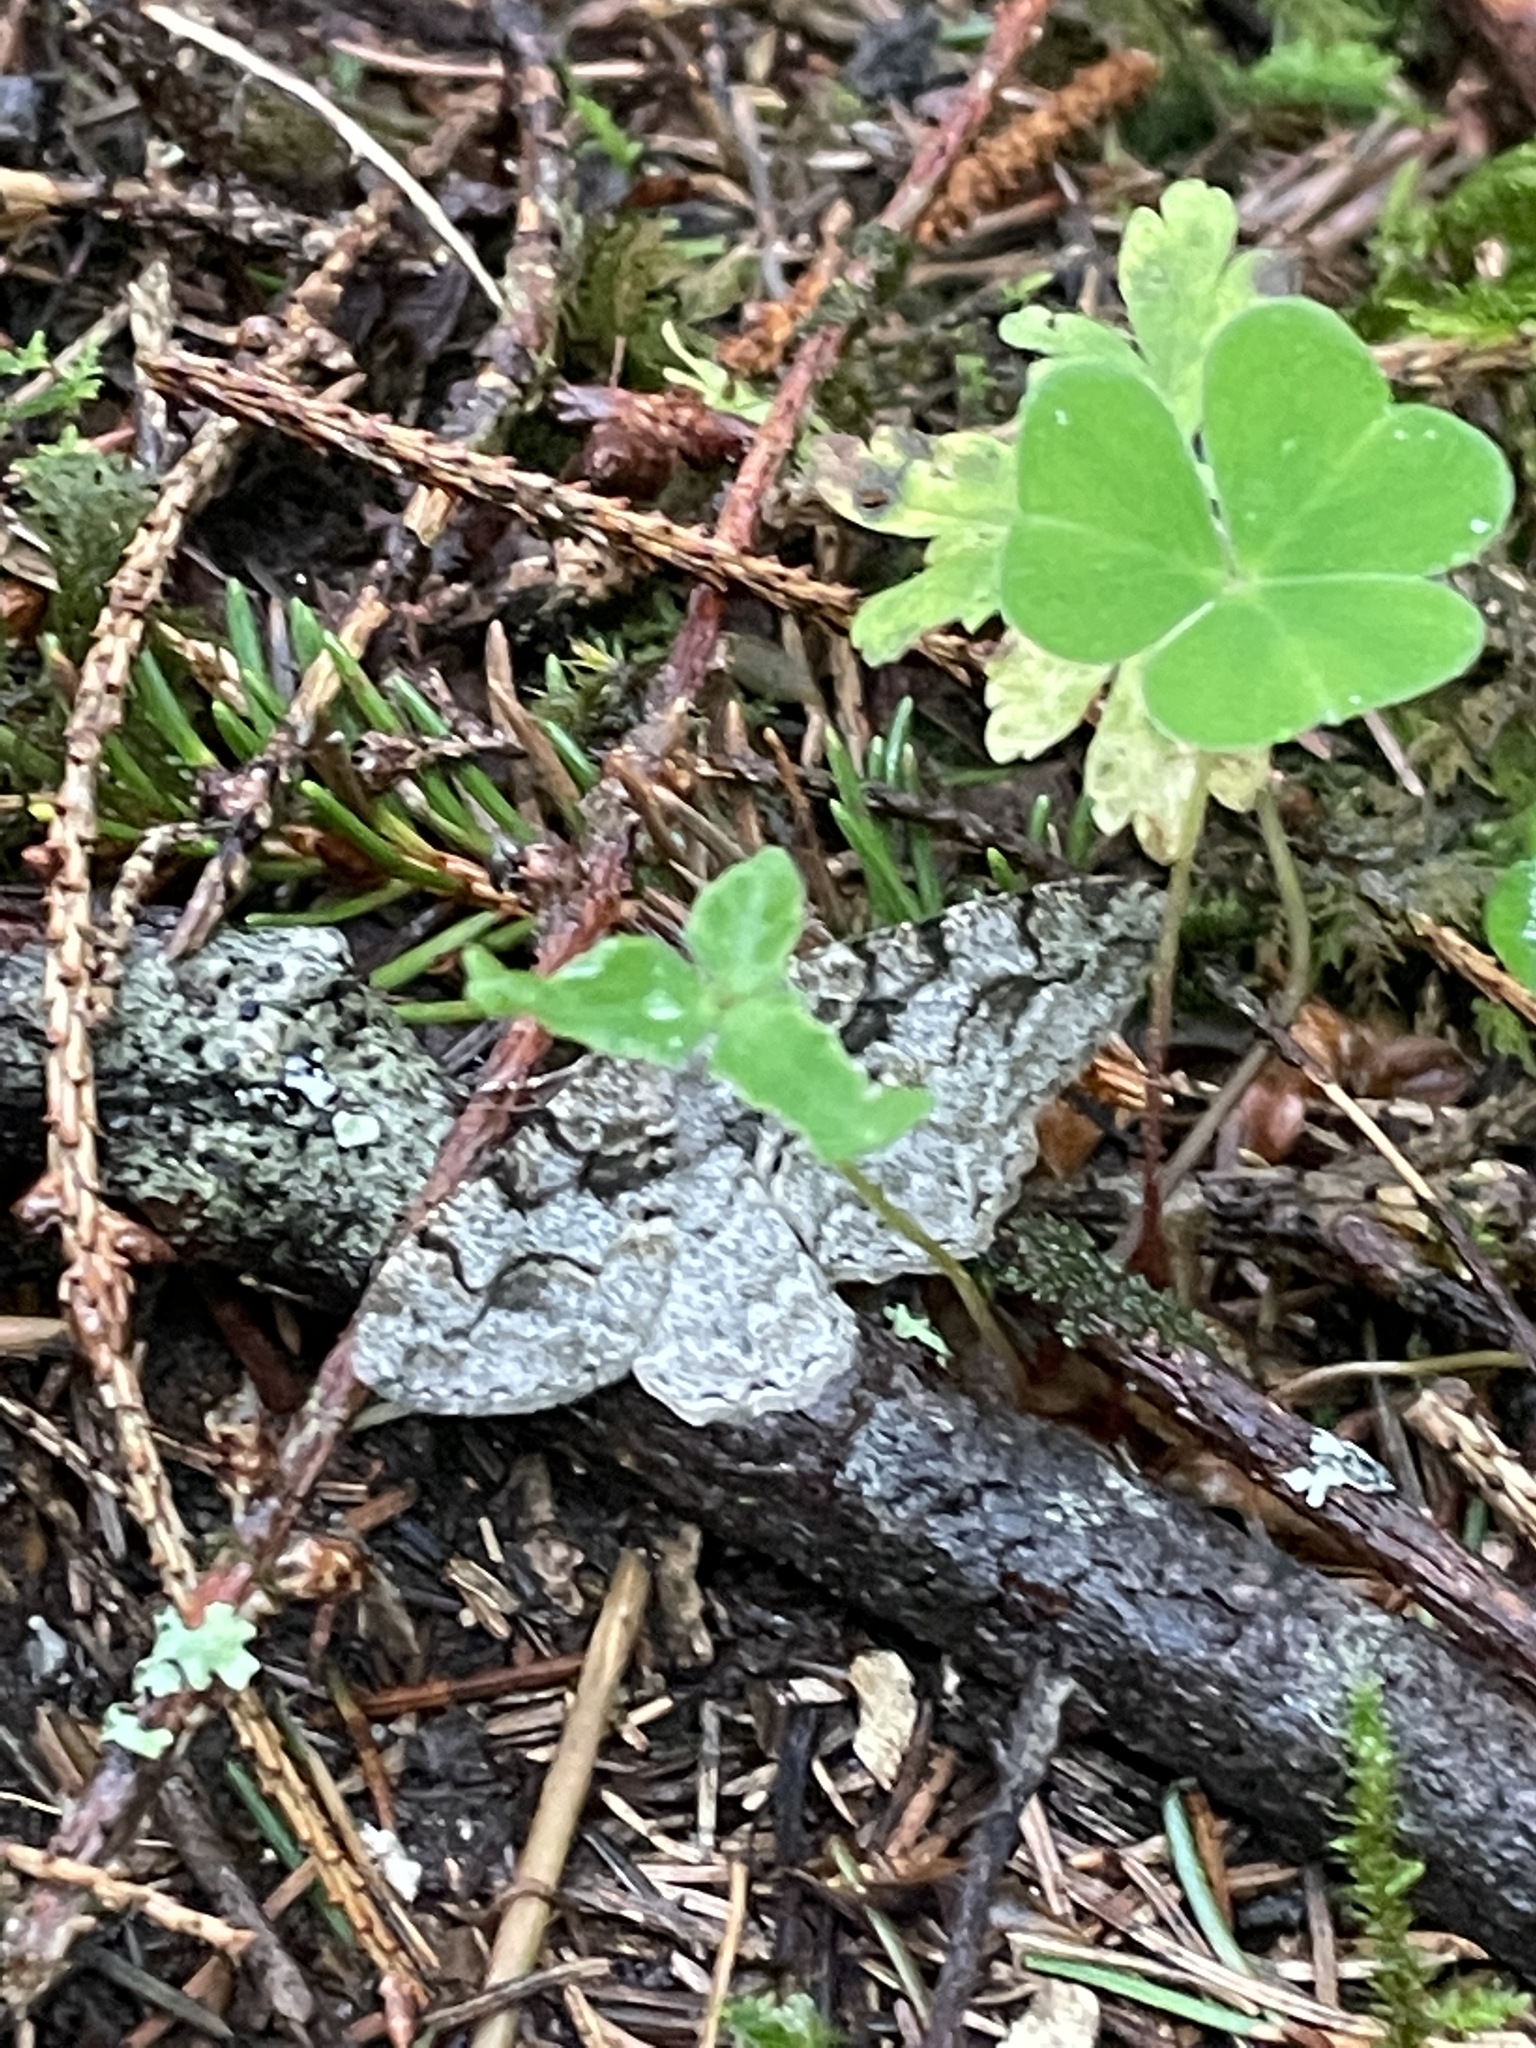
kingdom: Animalia
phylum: Arthropoda
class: Insecta
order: Lepidoptera
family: Geometridae
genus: Alcis
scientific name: Alcis repandata
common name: Mottled beauty
